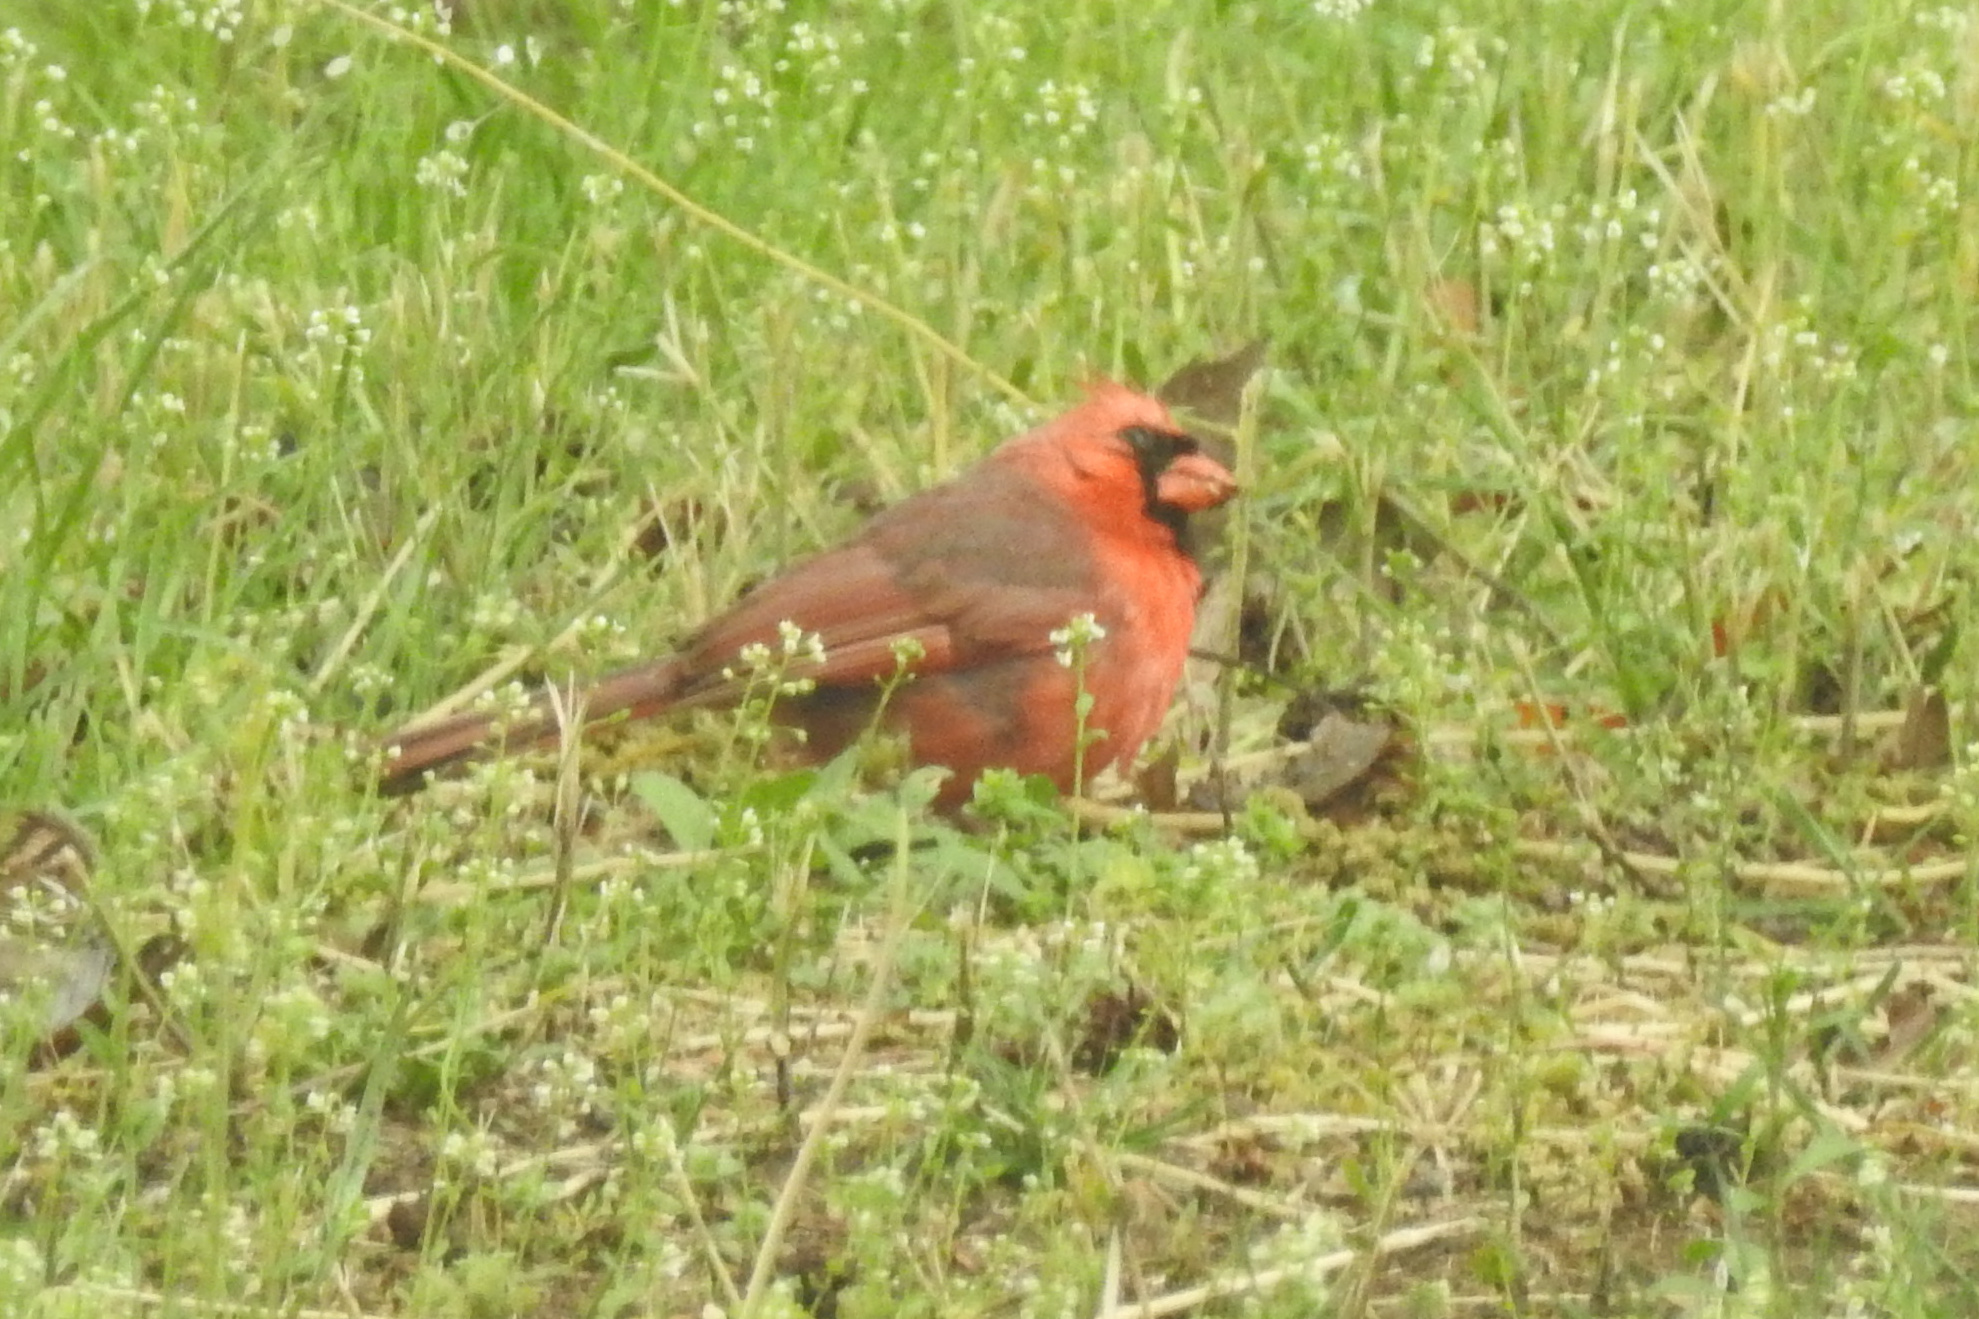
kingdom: Animalia
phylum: Chordata
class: Aves
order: Passeriformes
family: Cardinalidae
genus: Cardinalis
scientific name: Cardinalis cardinalis
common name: Northern cardinal
